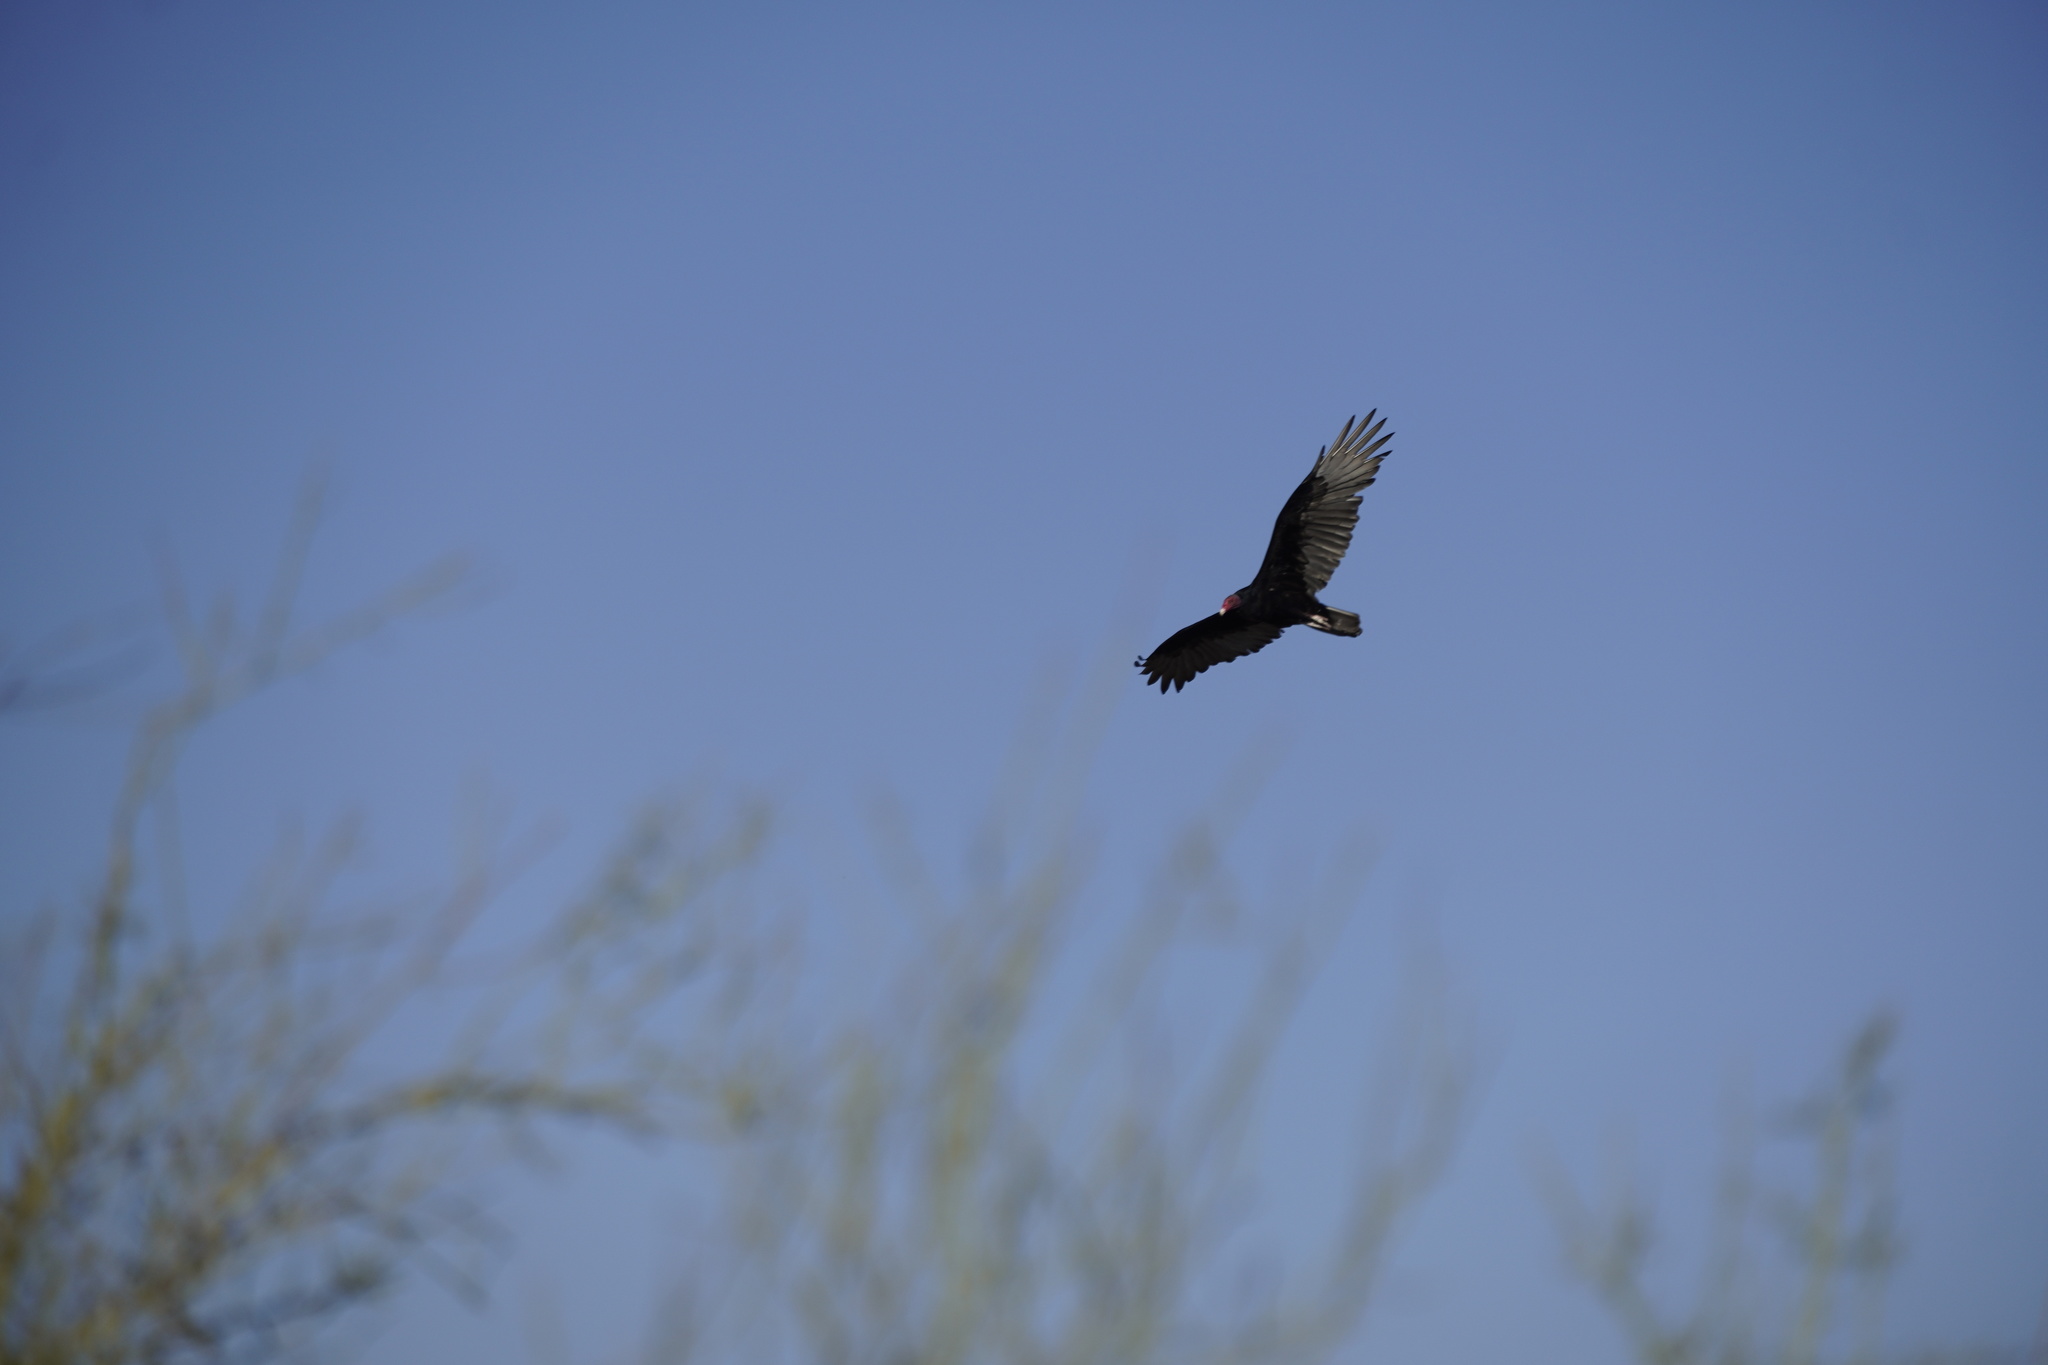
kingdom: Animalia
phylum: Chordata
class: Aves
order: Accipitriformes
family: Cathartidae
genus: Cathartes
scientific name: Cathartes aura
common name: Turkey vulture
